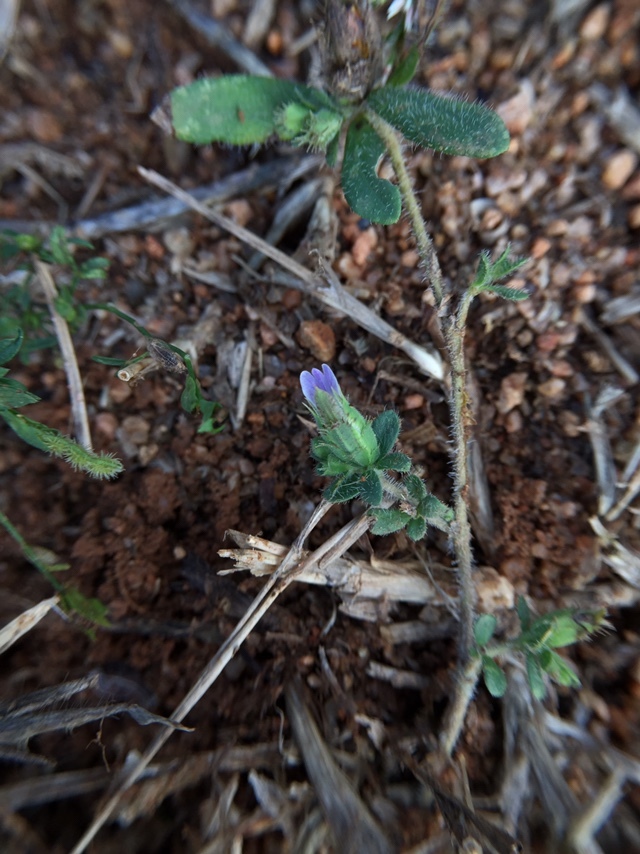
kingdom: Plantae
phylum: Tracheophyta
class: Magnoliopsida
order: Lamiales
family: Acanthaceae
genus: Blepharis
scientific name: Blepharis integrifolia
